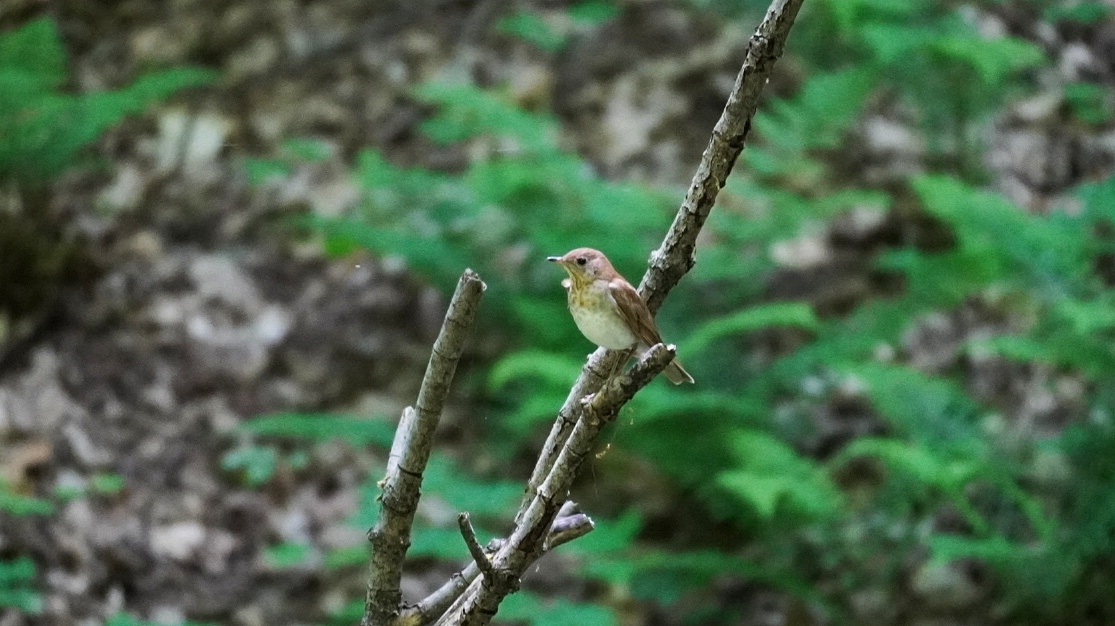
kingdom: Animalia
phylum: Chordata
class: Aves
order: Passeriformes
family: Turdidae
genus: Catharus
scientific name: Catharus fuscescens
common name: Veery
